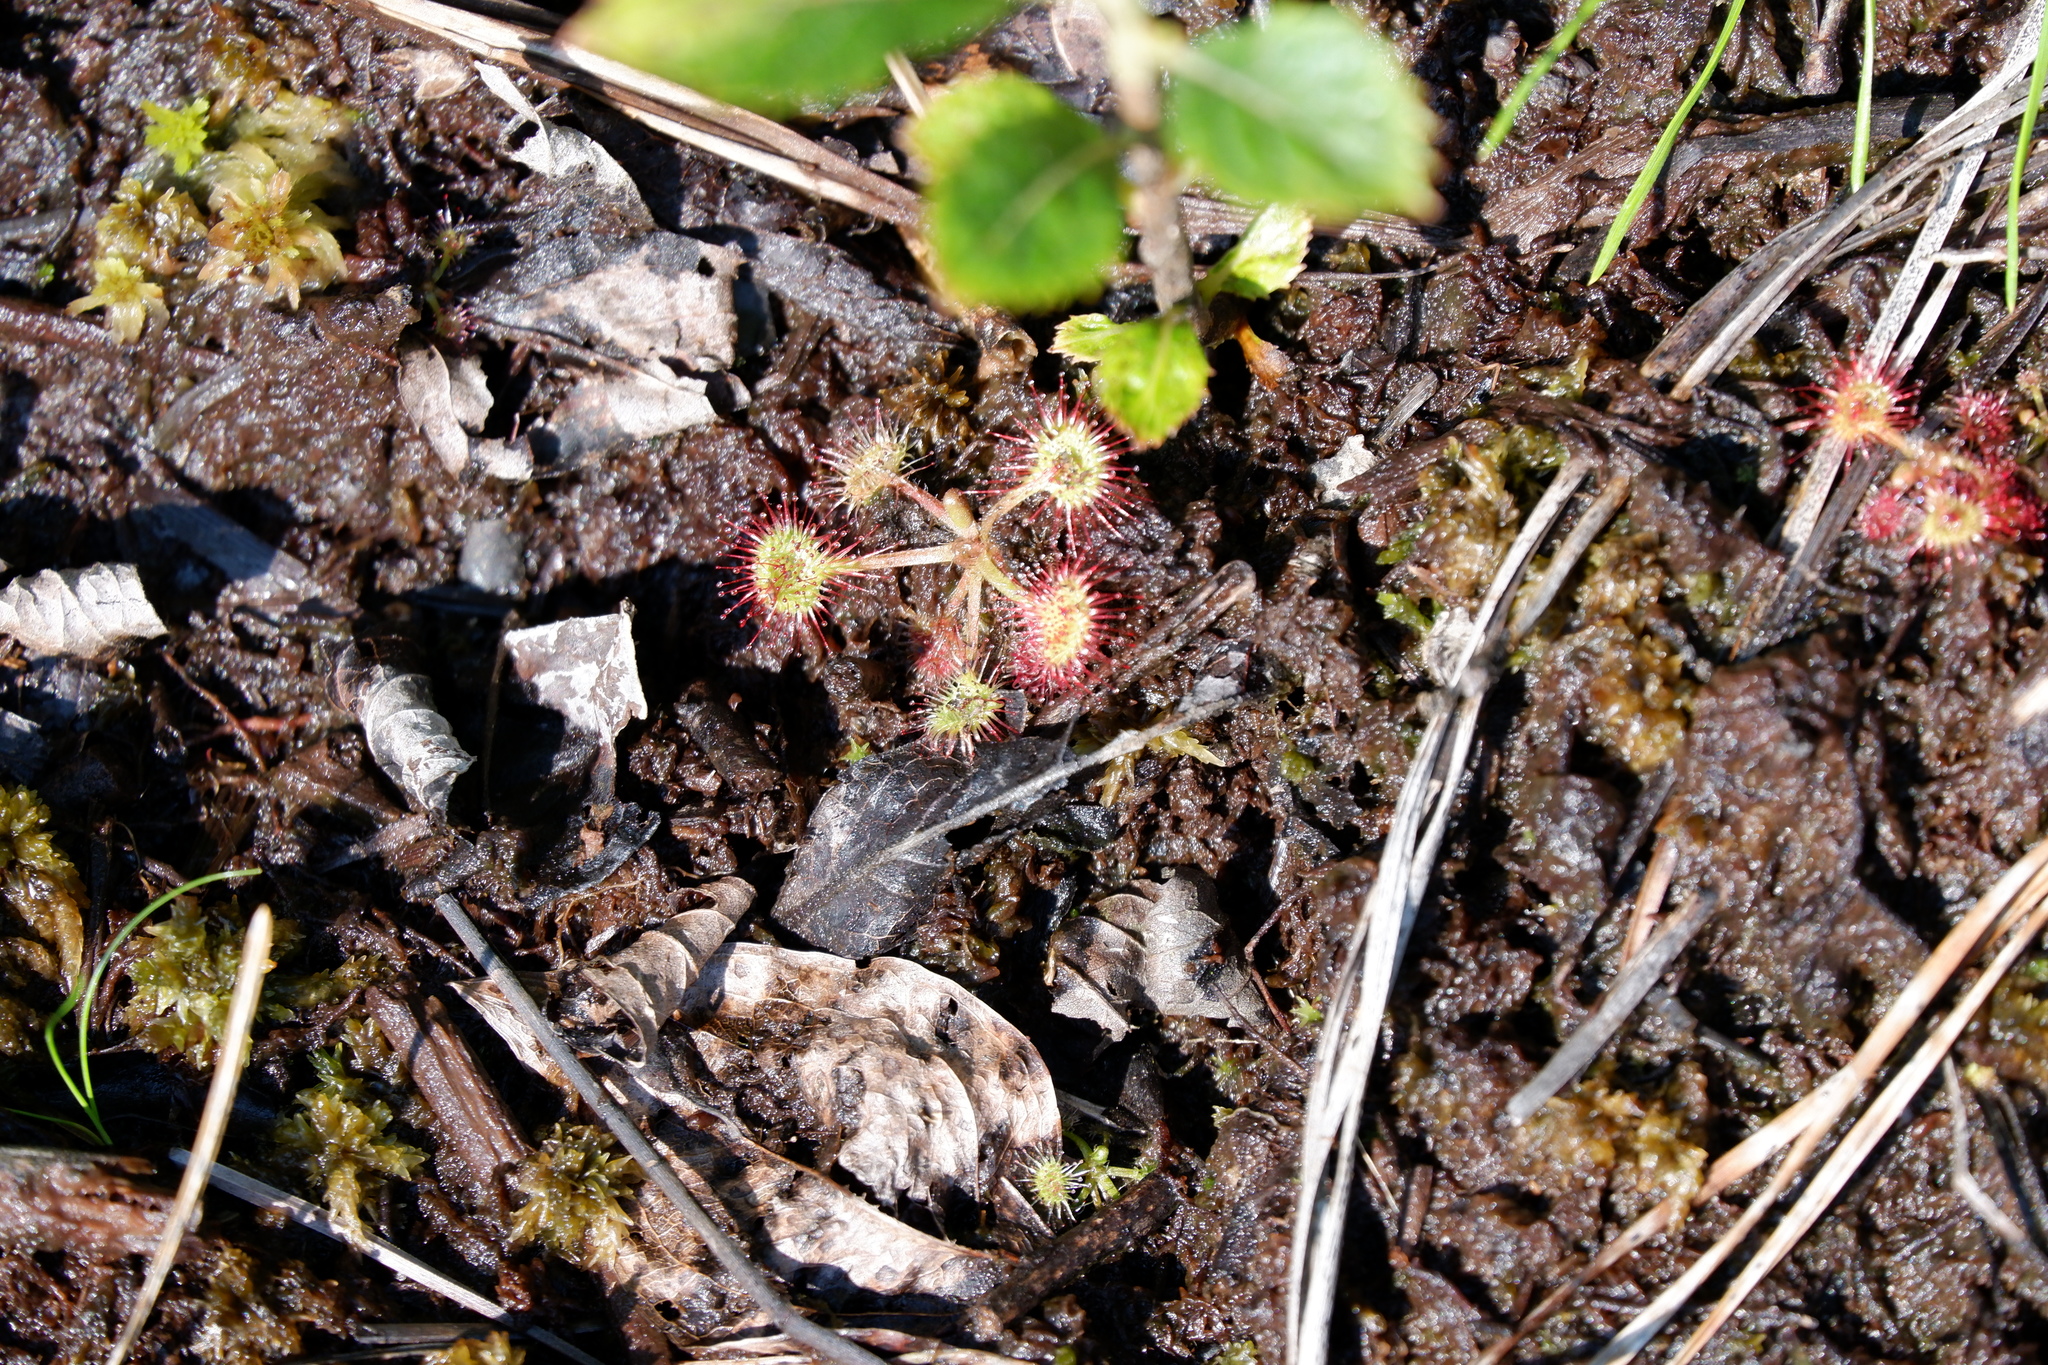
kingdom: Plantae
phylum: Tracheophyta
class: Magnoliopsida
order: Caryophyllales
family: Droseraceae
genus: Drosera
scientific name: Drosera rotundifolia
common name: Round-leaved sundew
